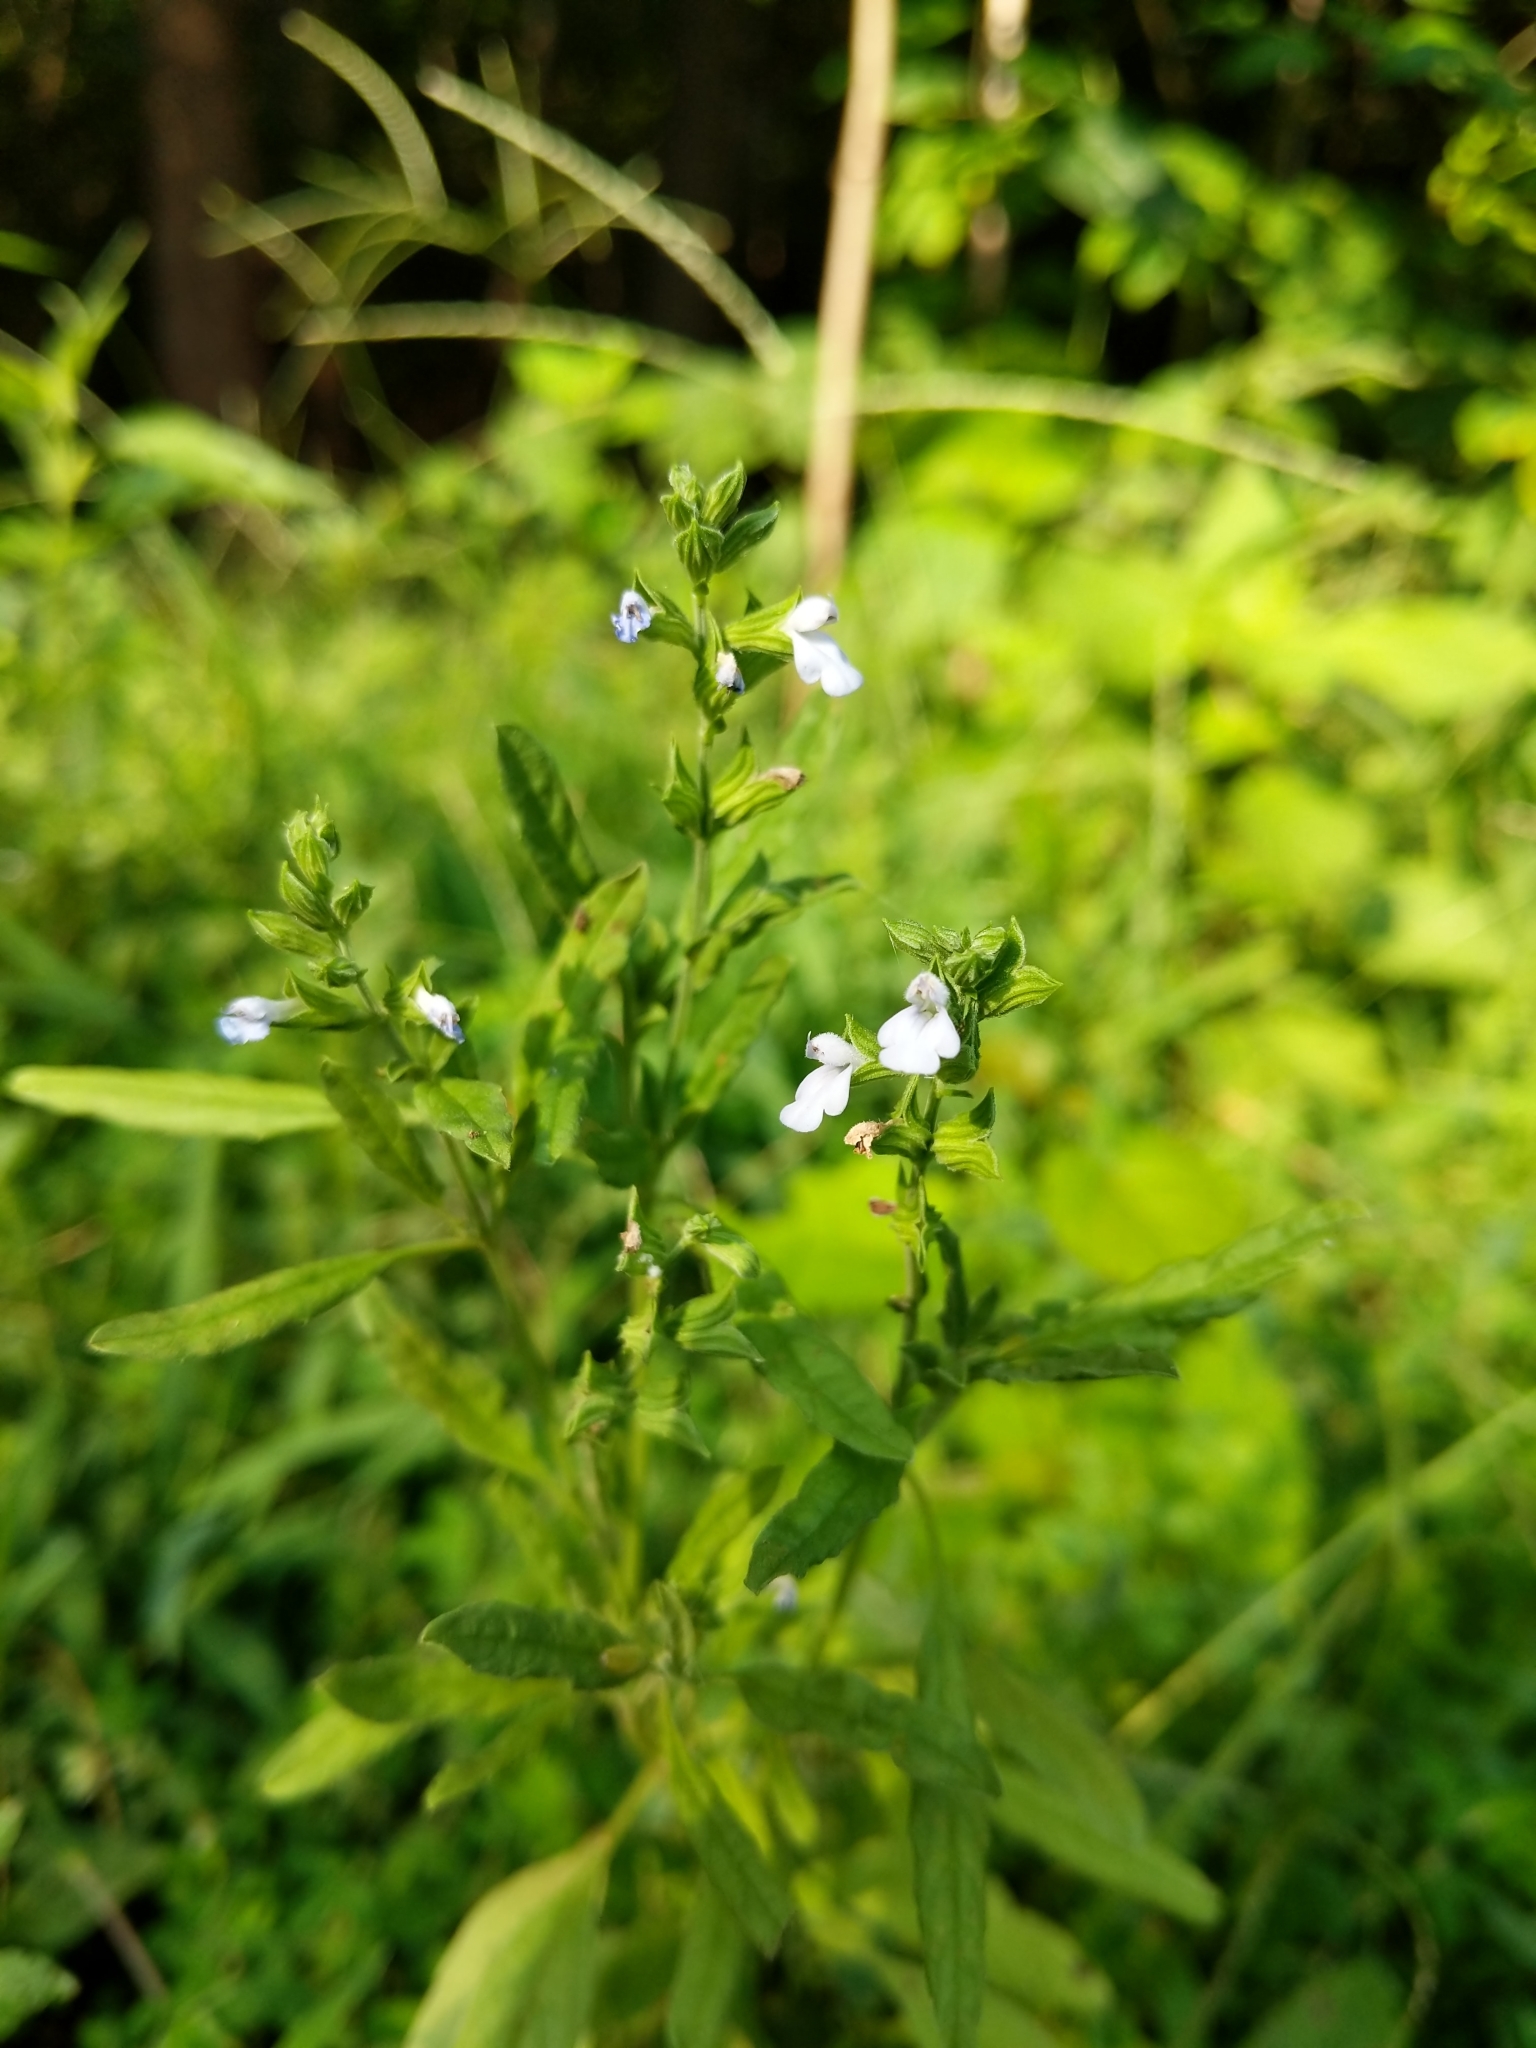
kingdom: Plantae
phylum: Tracheophyta
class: Magnoliopsida
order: Lamiales
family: Lamiaceae
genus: Salvia
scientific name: Salvia reflexa
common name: Mintweed
